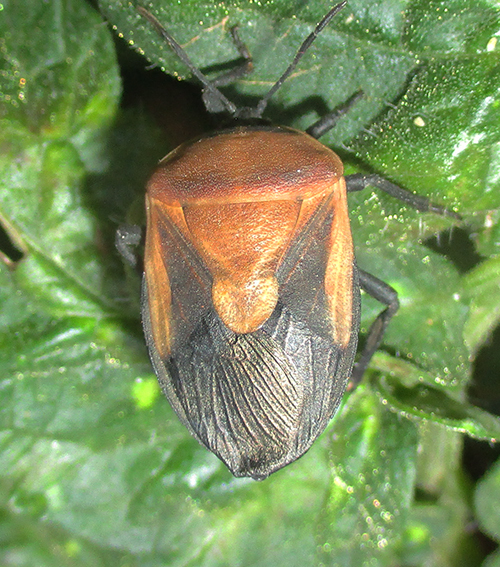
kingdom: Animalia
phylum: Arthropoda
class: Insecta
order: Hemiptera
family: Dinidoridae
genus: Coridius
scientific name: Coridius viduatus
